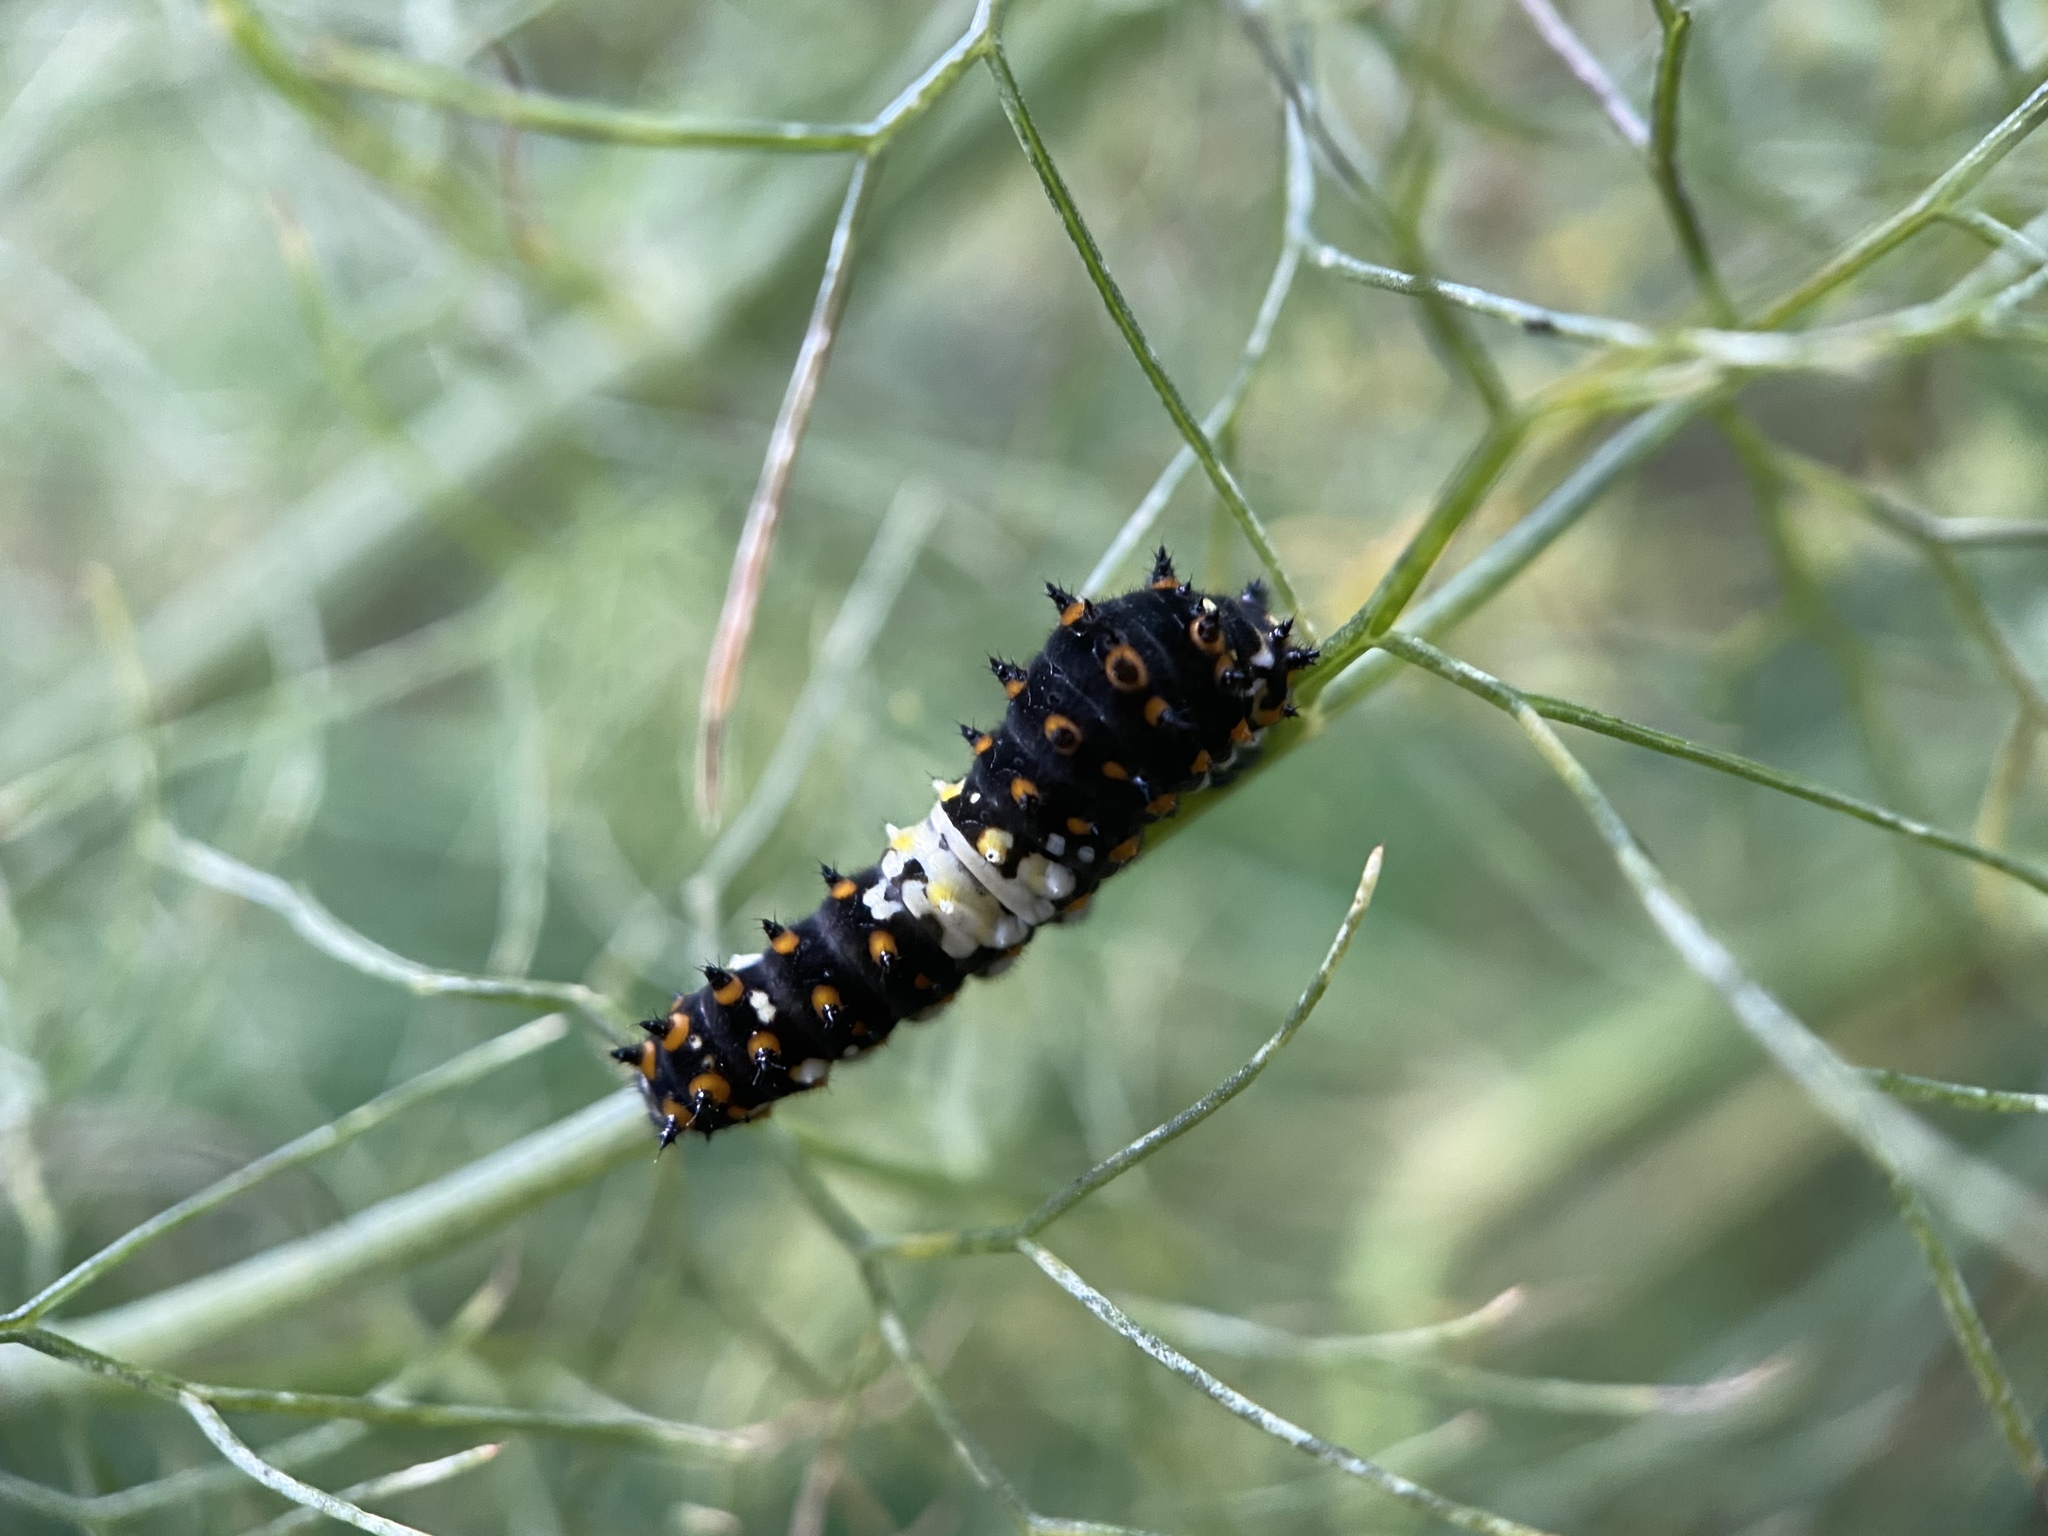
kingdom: Animalia
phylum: Arthropoda
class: Insecta
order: Lepidoptera
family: Papilionidae
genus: Papilio
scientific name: Papilio polyxenes
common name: Black swallowtail
